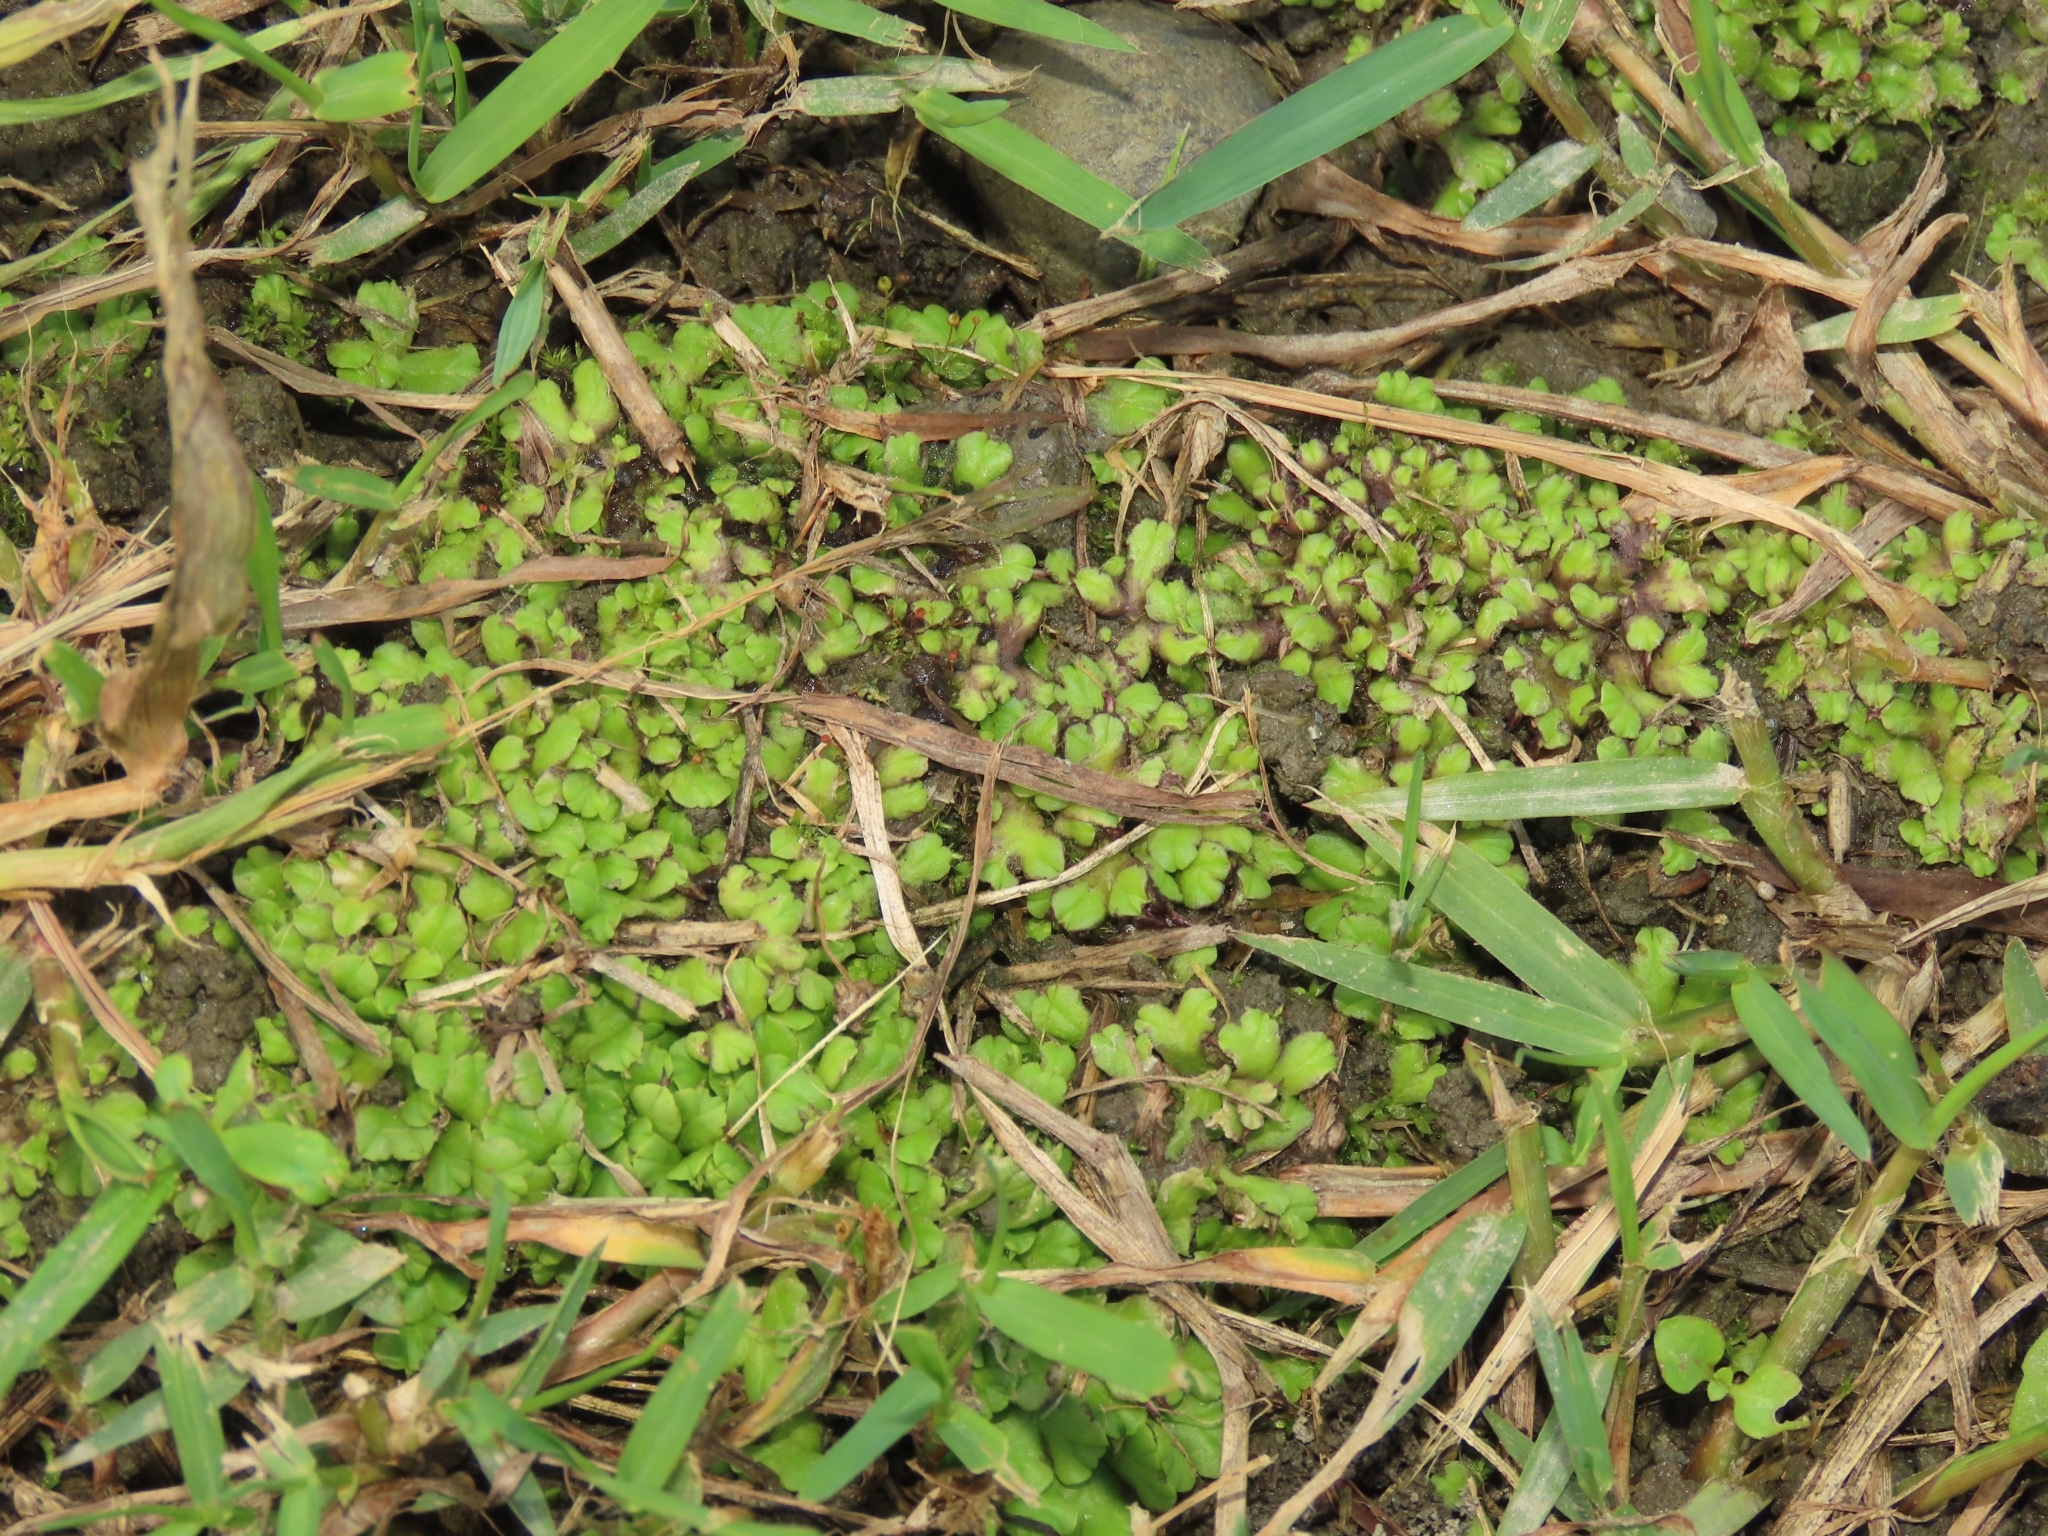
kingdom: Plantae
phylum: Marchantiophyta
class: Marchantiopsida
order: Marchantiales
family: Ricciaceae
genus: Ricciocarpos
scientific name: Ricciocarpos natans
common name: Purple-fringed liverwort
